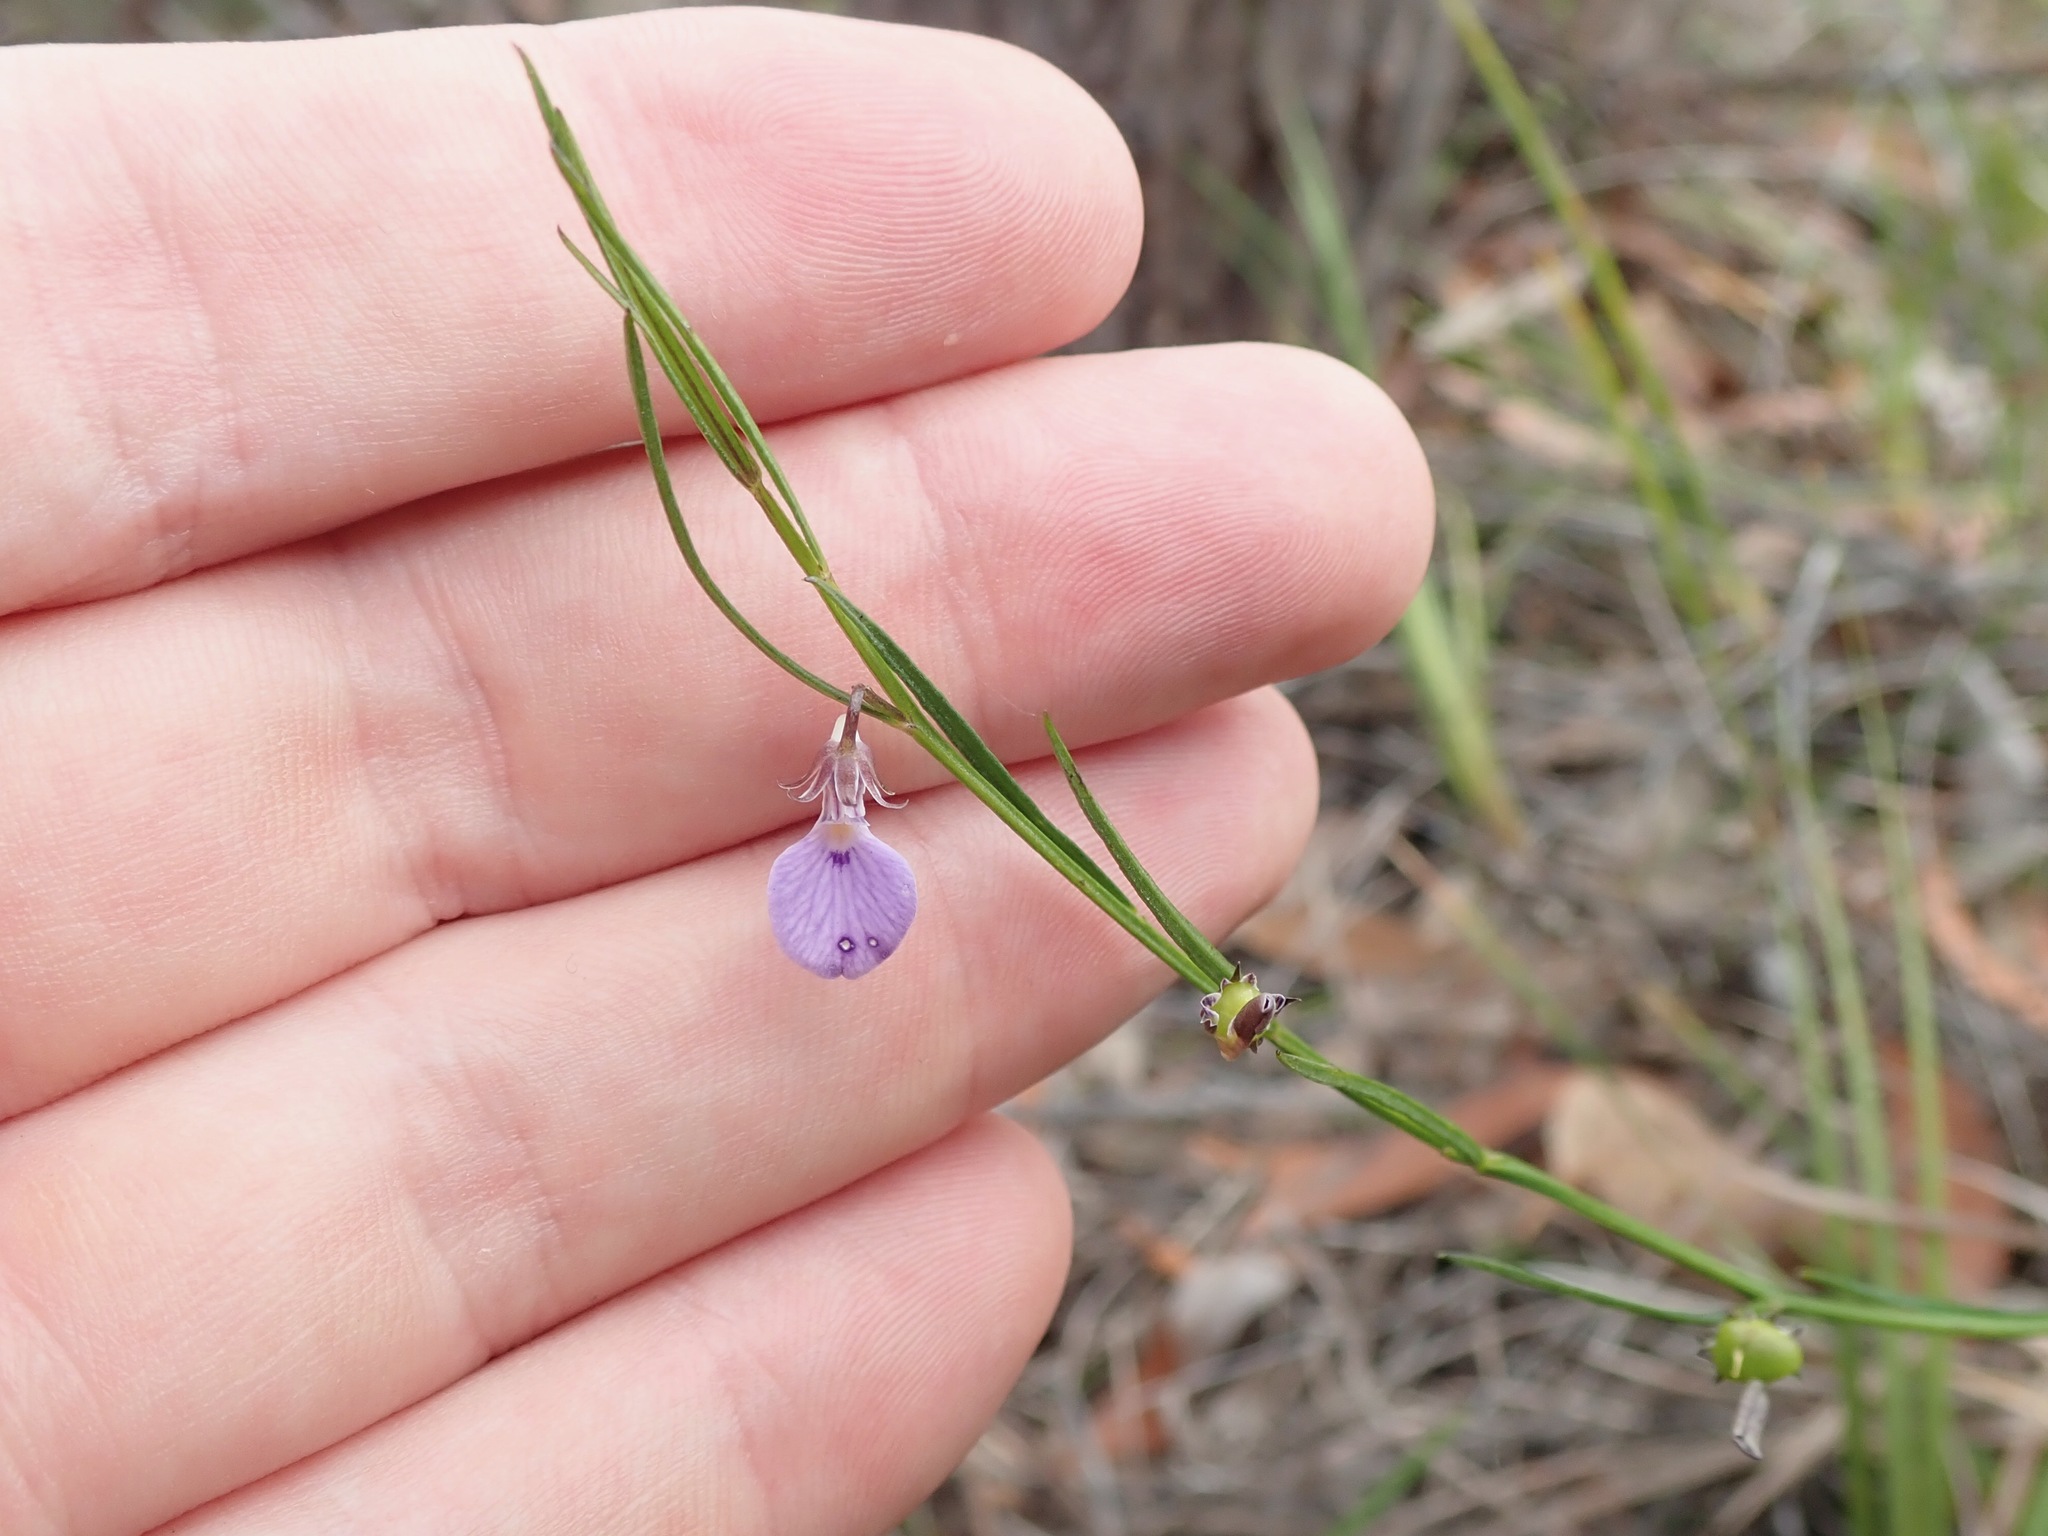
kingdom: Plantae
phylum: Tracheophyta
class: Magnoliopsida
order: Malpighiales
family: Violaceae
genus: Pigea
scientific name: Pigea vernonii
